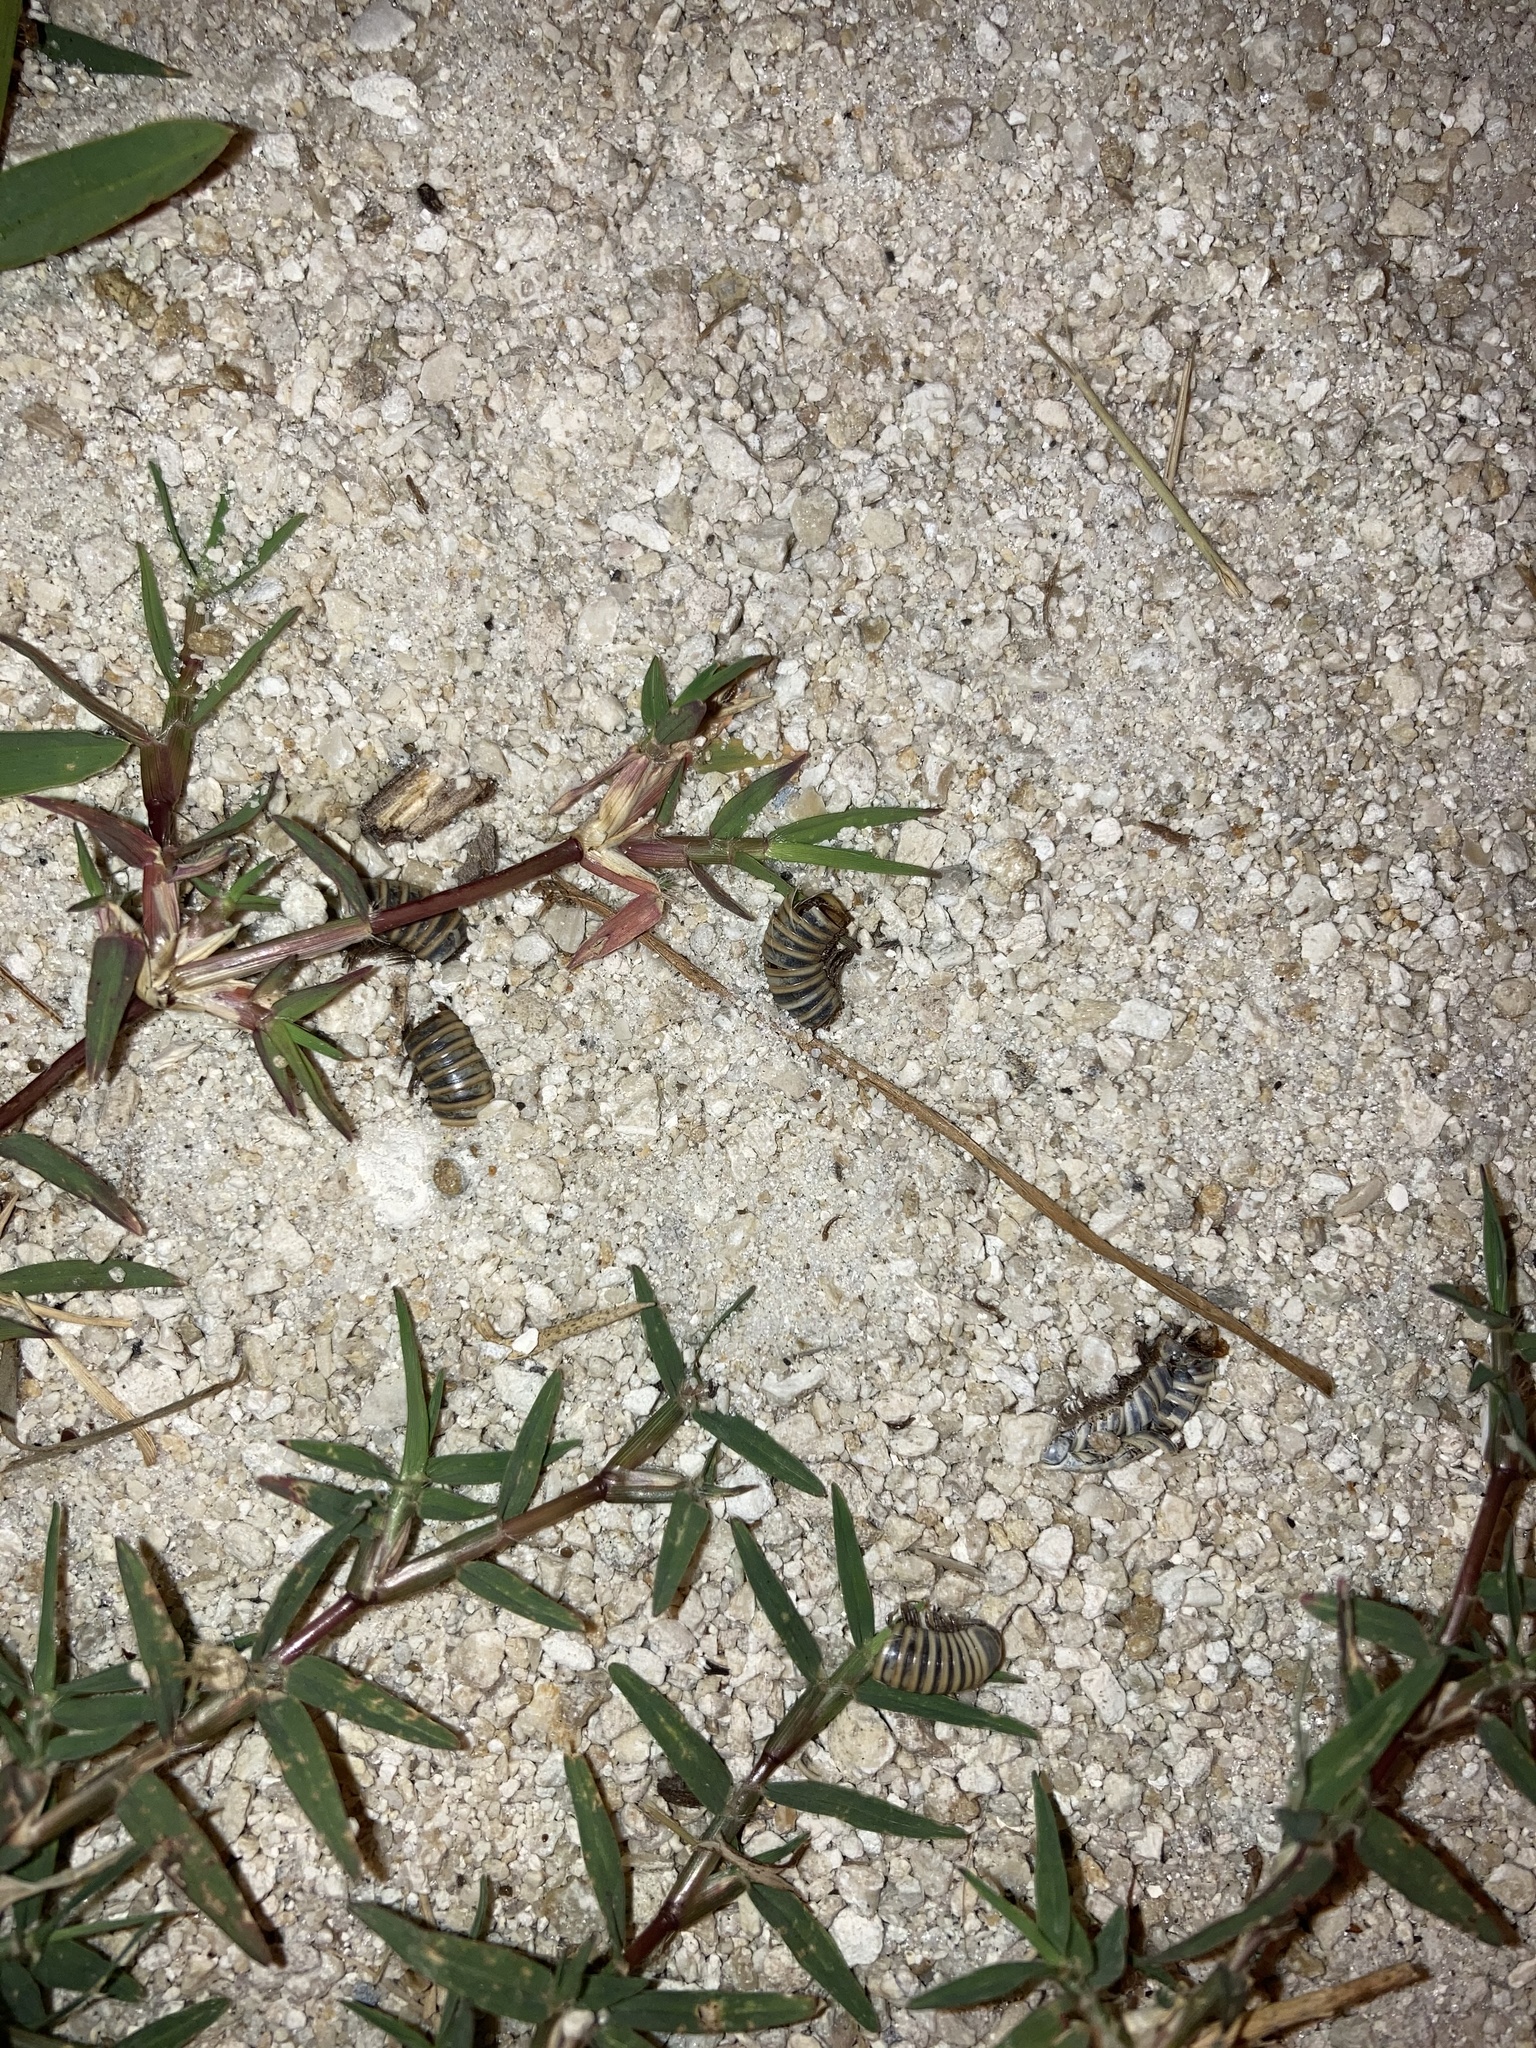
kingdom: Animalia
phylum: Arthropoda
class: Diplopoda
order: Spirobolida
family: Rhinocricidae
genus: Anadenobolus
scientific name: Anadenobolus monilicornis
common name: Caribbean millipede
